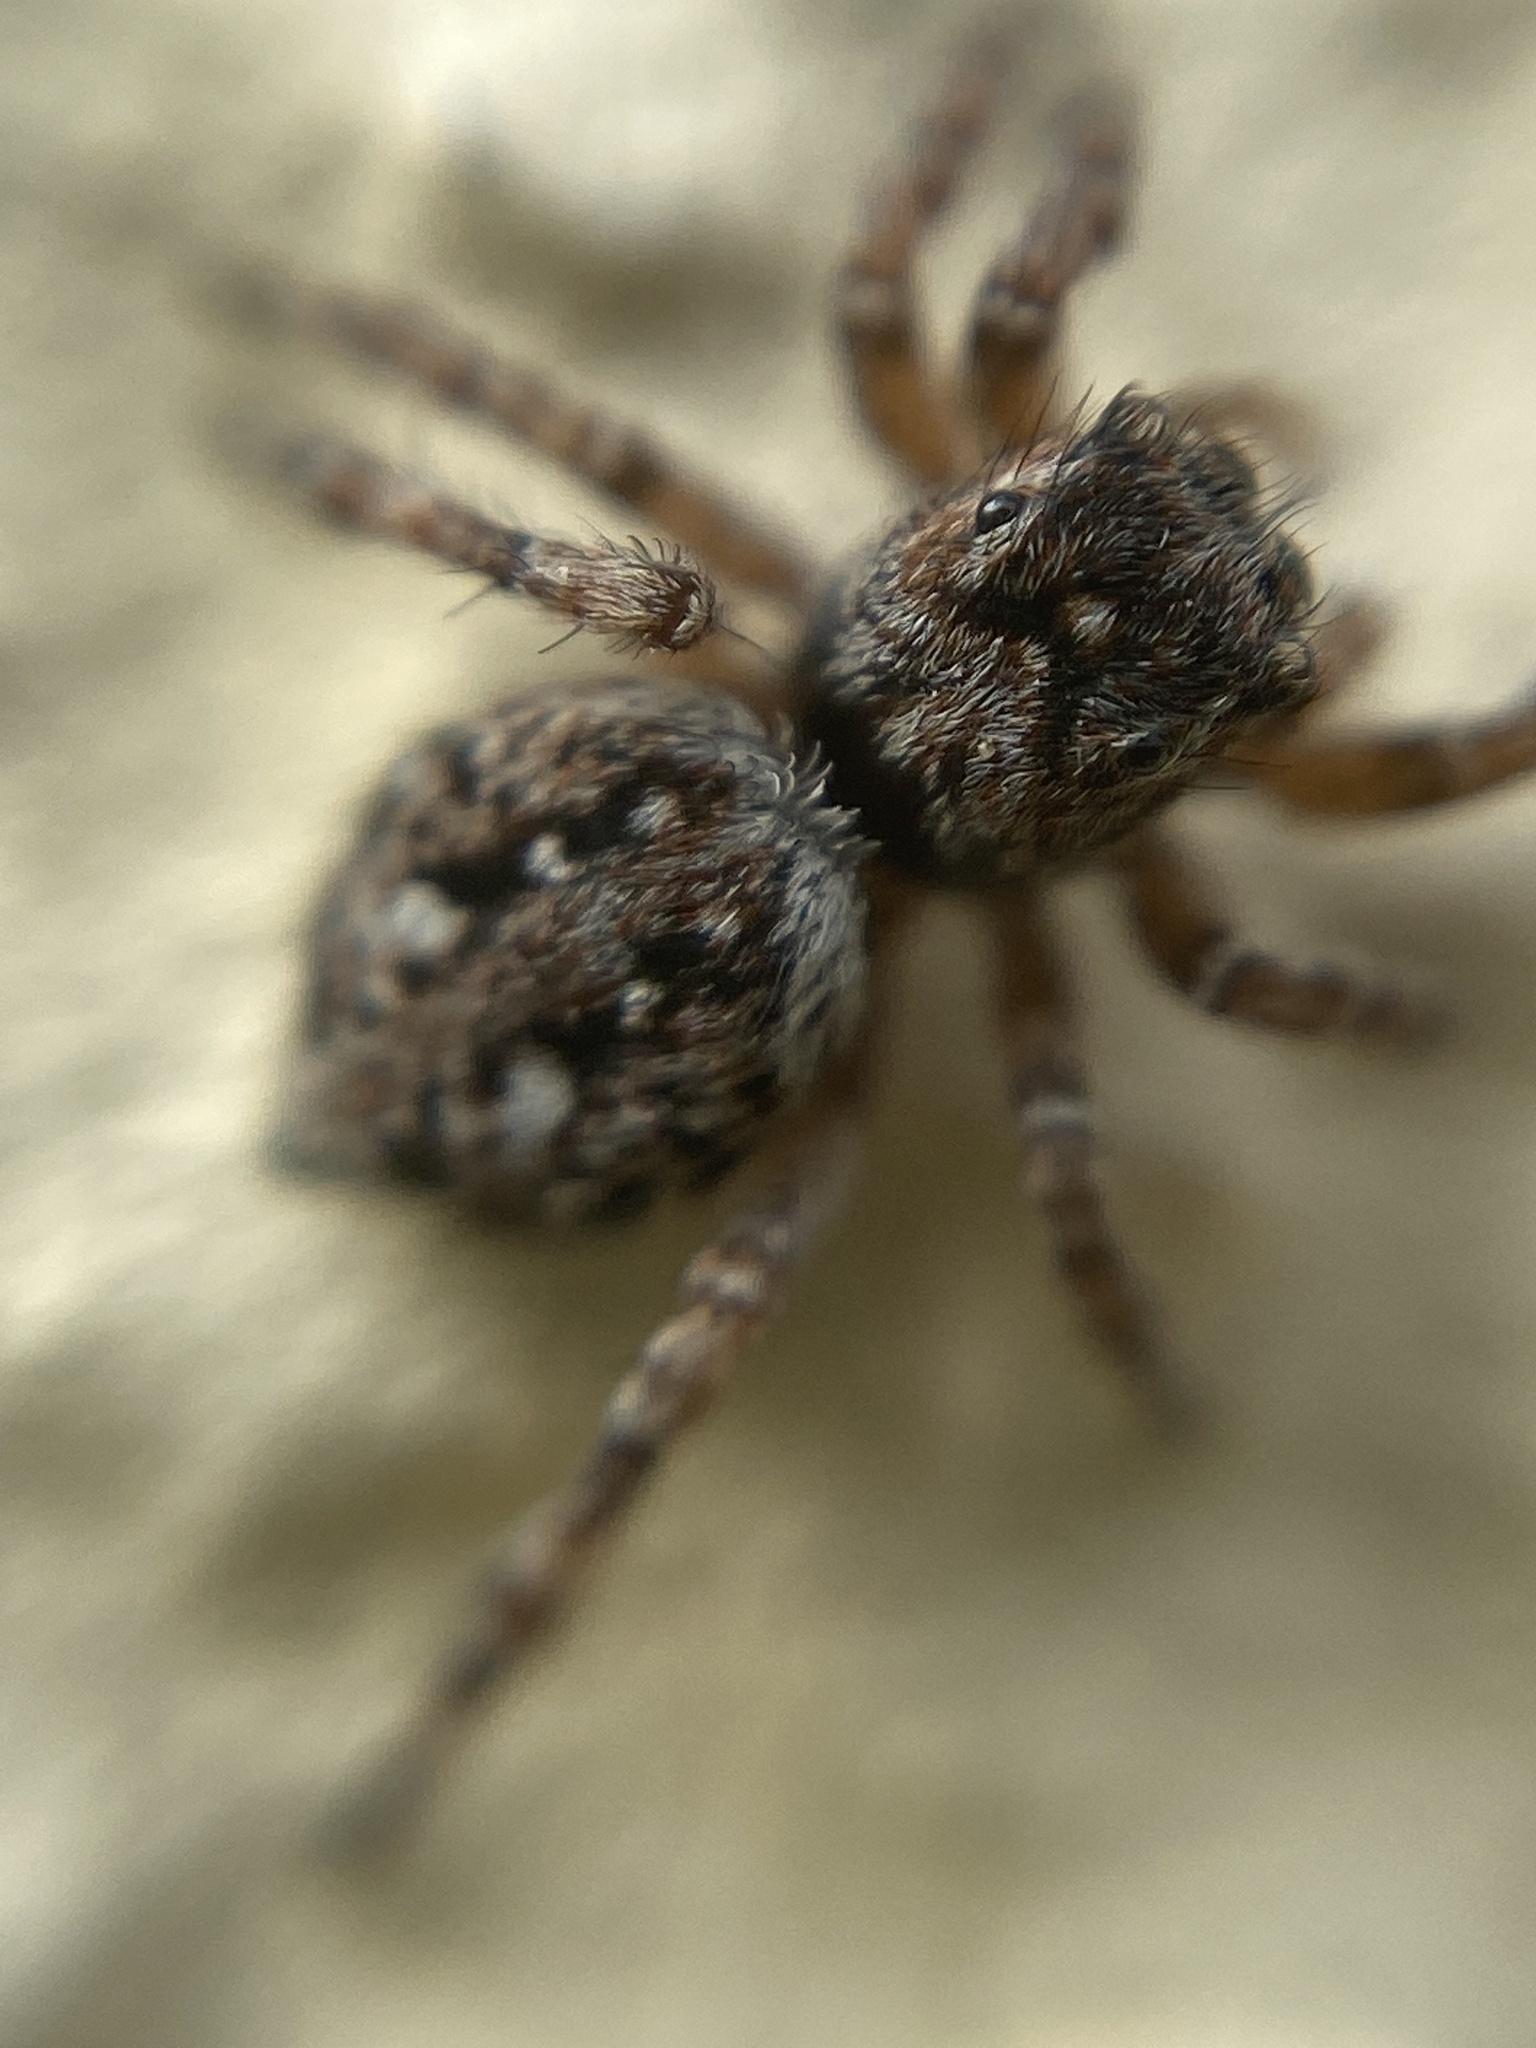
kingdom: Animalia
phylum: Arthropoda
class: Arachnida
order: Araneae
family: Salticidae
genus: Attulus
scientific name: Attulus pubescens
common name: Jumping spider
